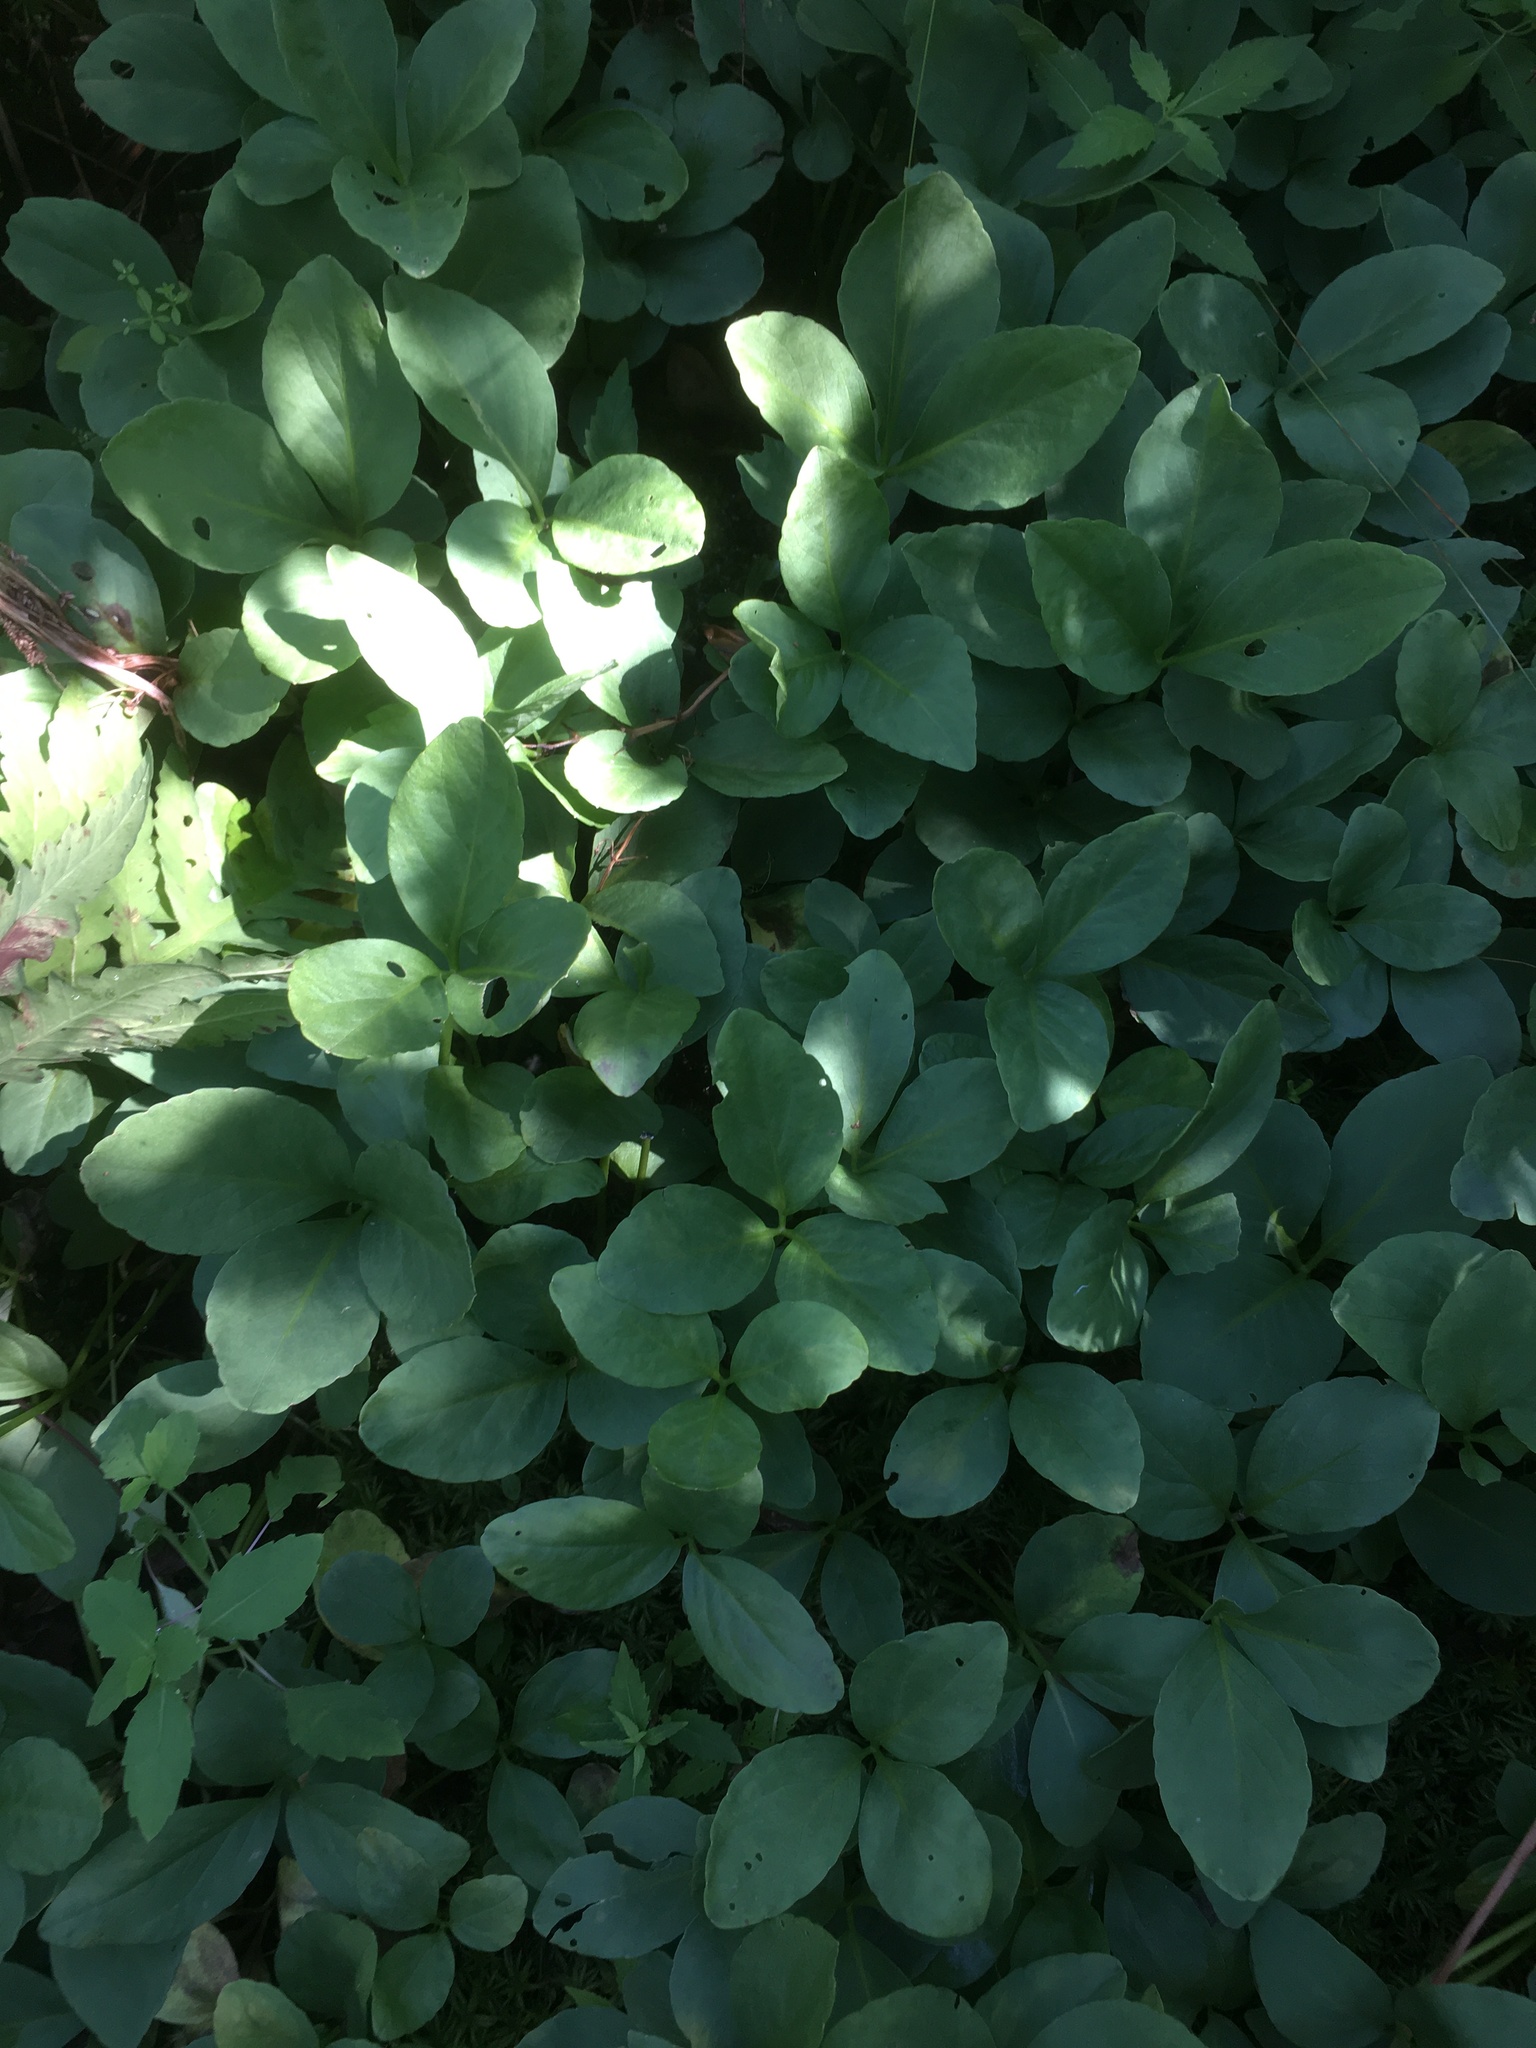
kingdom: Plantae
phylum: Tracheophyta
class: Magnoliopsida
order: Asterales
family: Menyanthaceae
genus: Menyanthes
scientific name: Menyanthes trifoliata
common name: Bogbean
